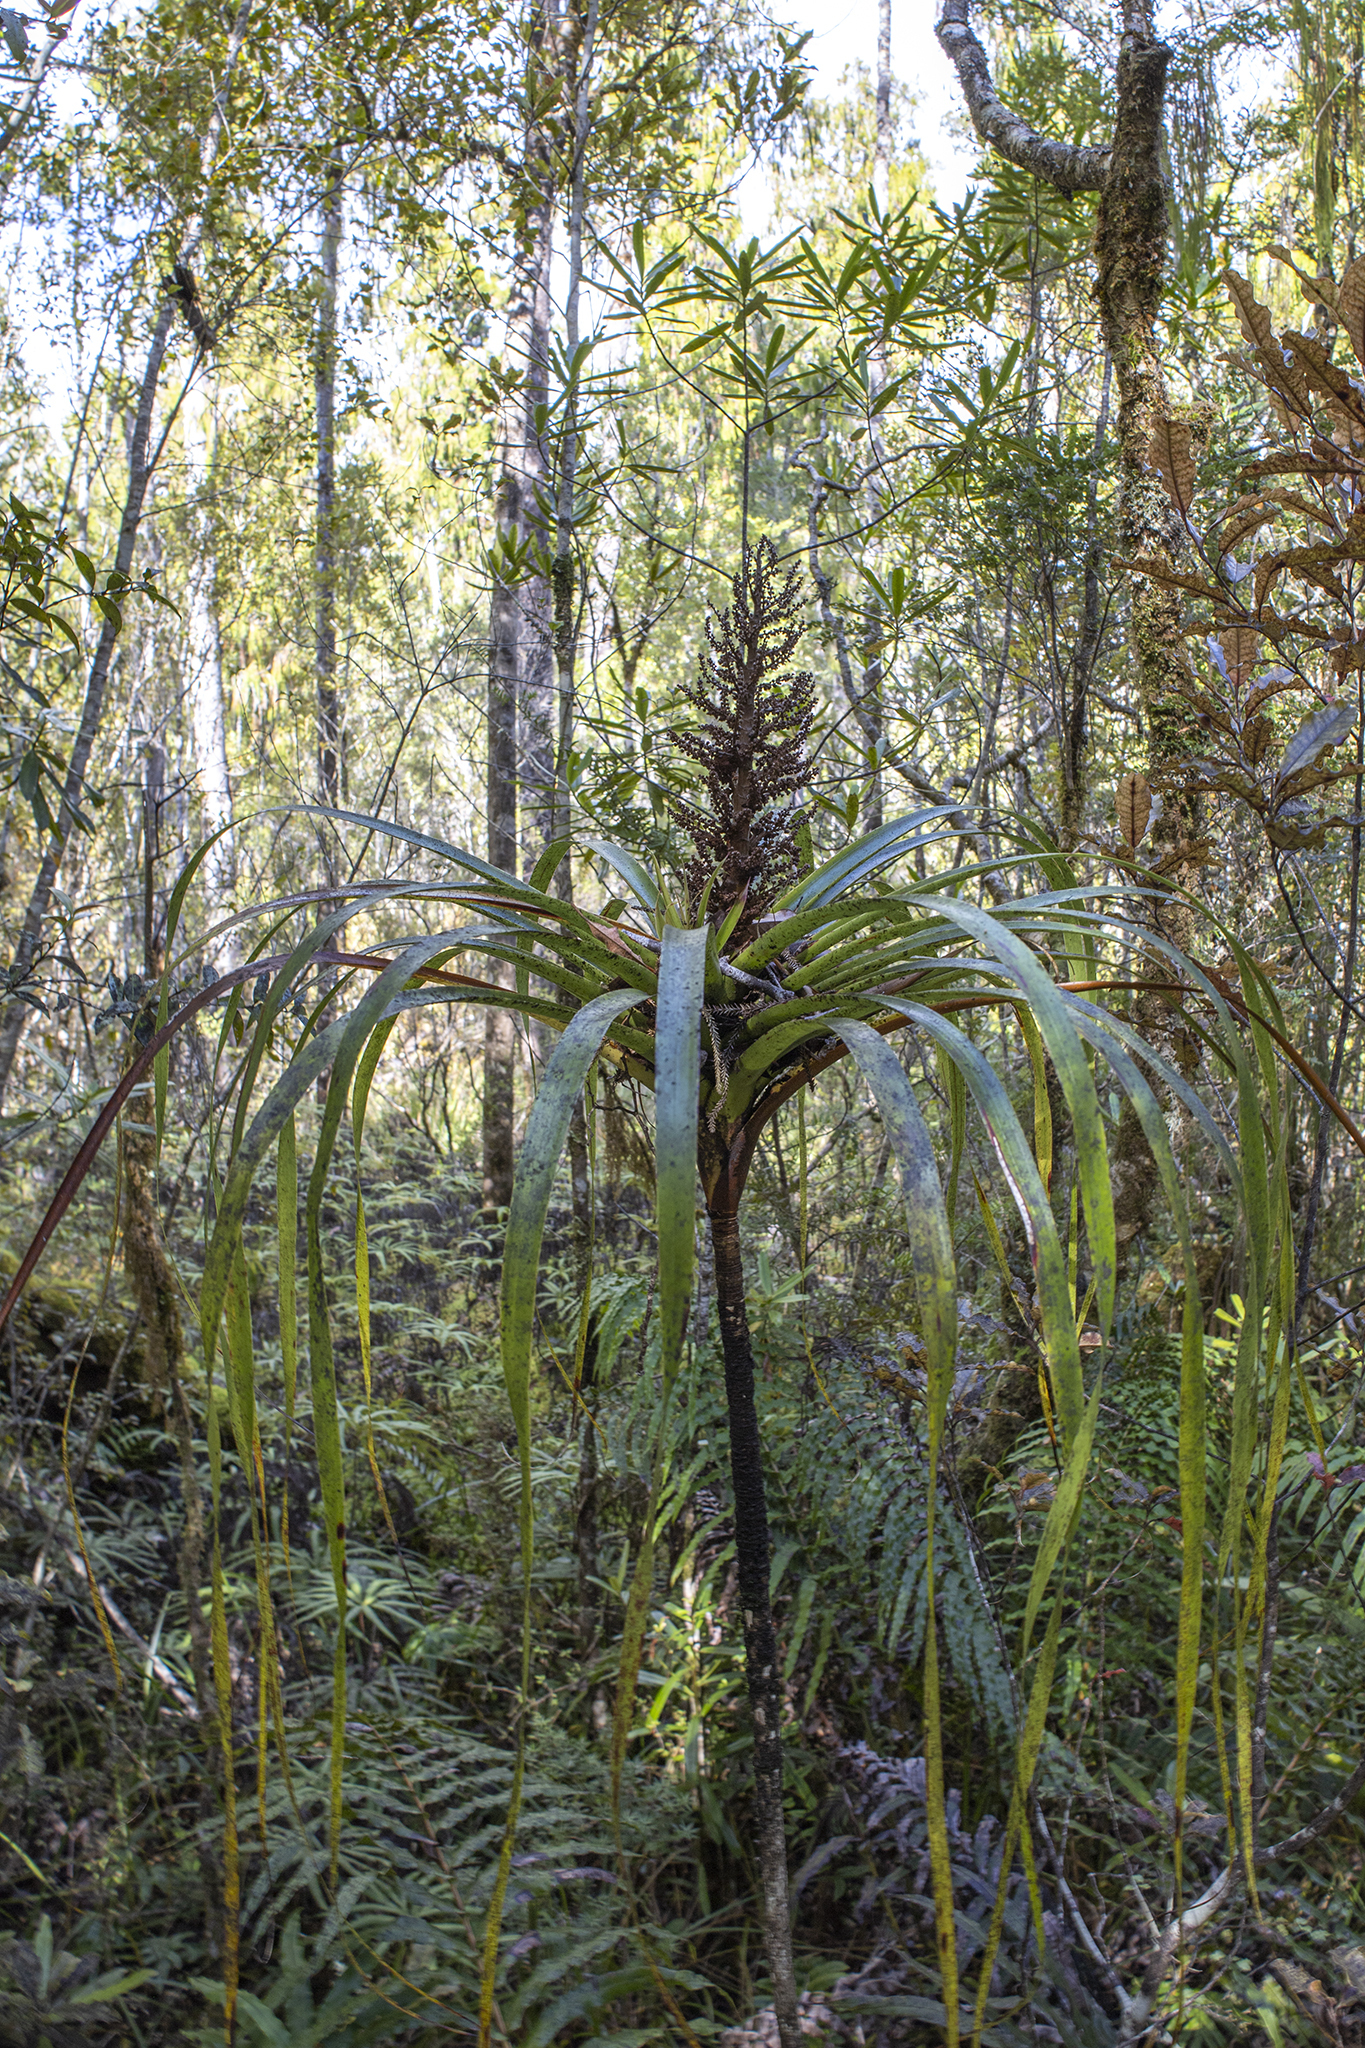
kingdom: Plantae
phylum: Tracheophyta
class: Magnoliopsida
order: Ericales
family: Ericaceae
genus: Dracophyllum
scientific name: Dracophyllum elegantissimum
